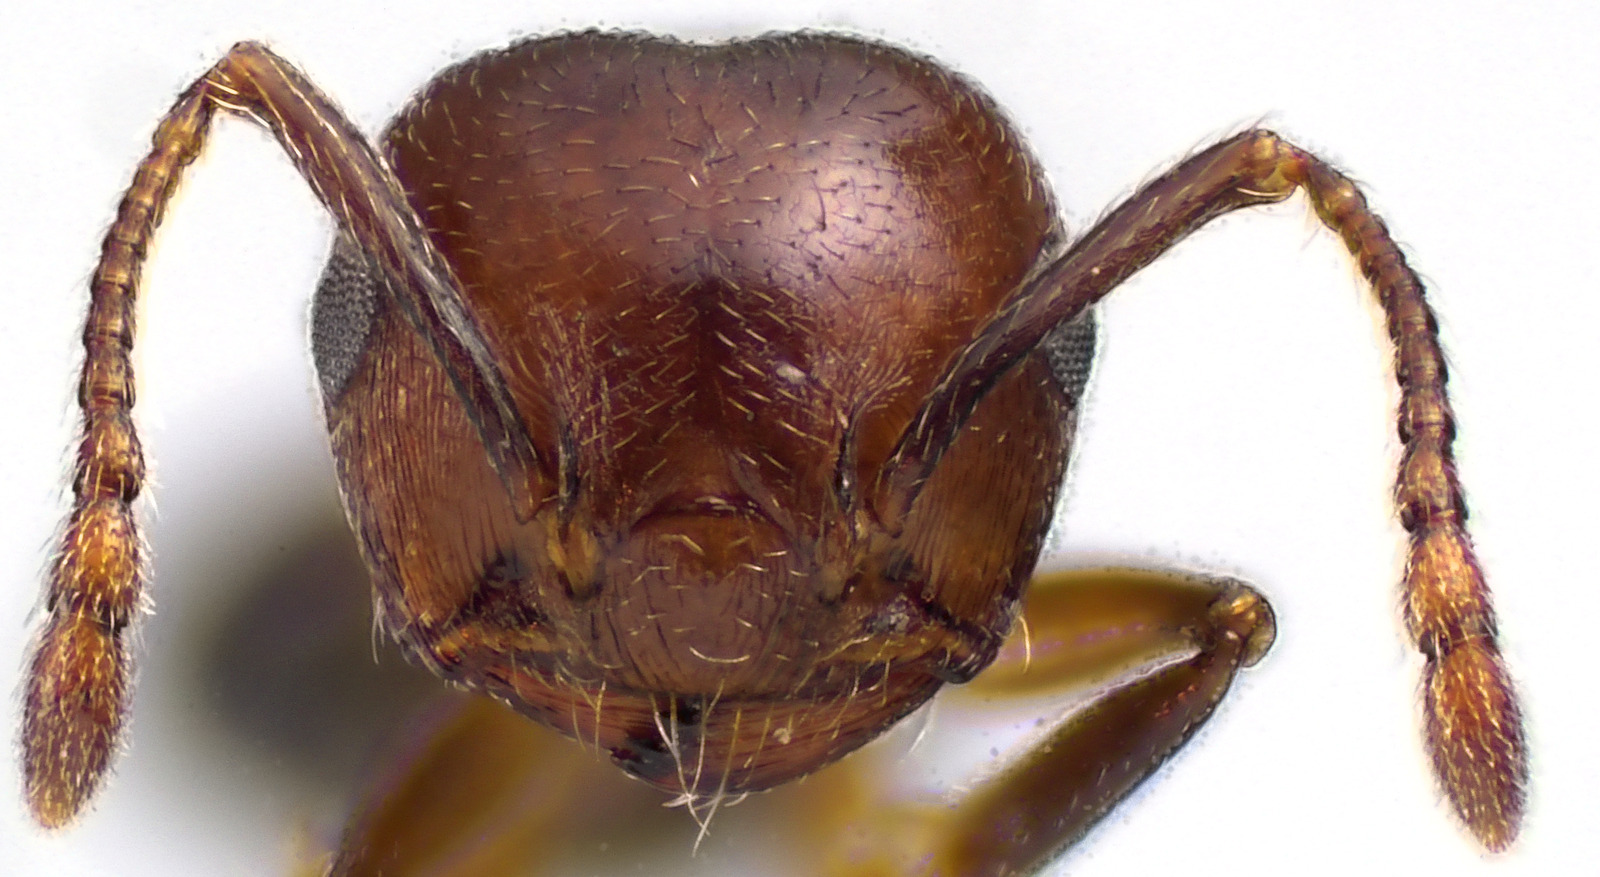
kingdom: Animalia
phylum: Arthropoda
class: Insecta
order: Hymenoptera
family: Formicidae
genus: Crematogaster
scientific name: Crematogaster cerasi
